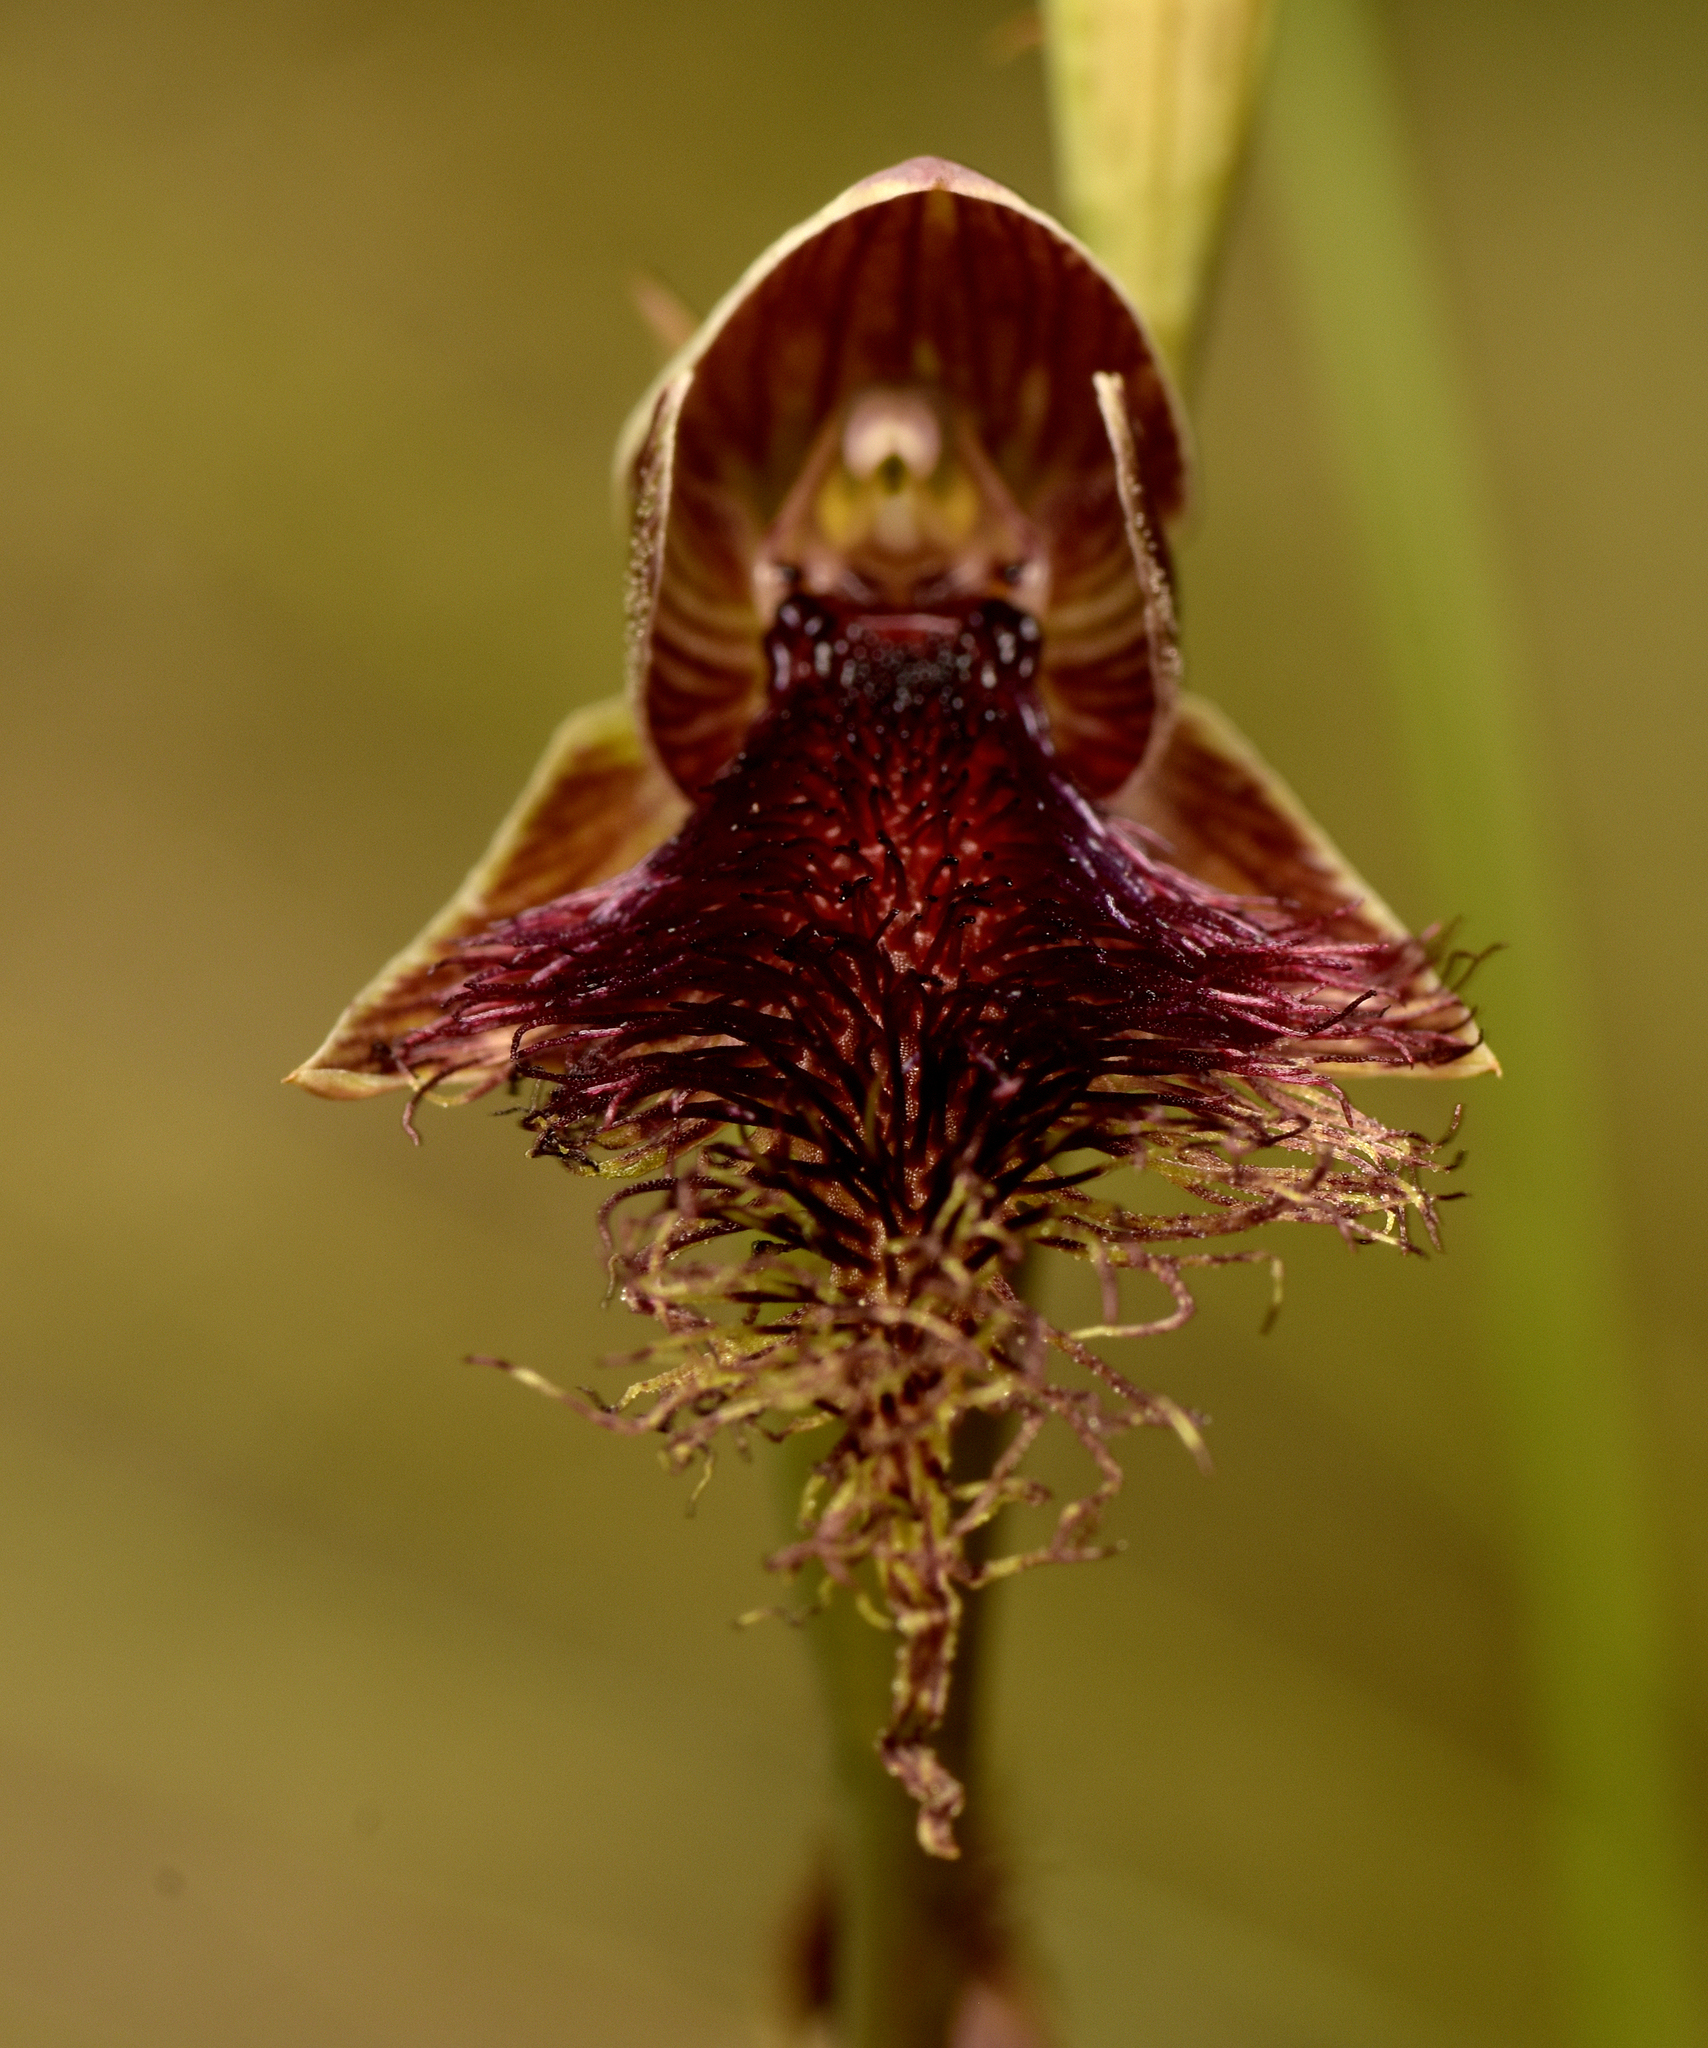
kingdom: Plantae
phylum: Tracheophyta
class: Liliopsida
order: Asparagales
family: Orchidaceae
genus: Calochilus
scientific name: Calochilus robertsonii
